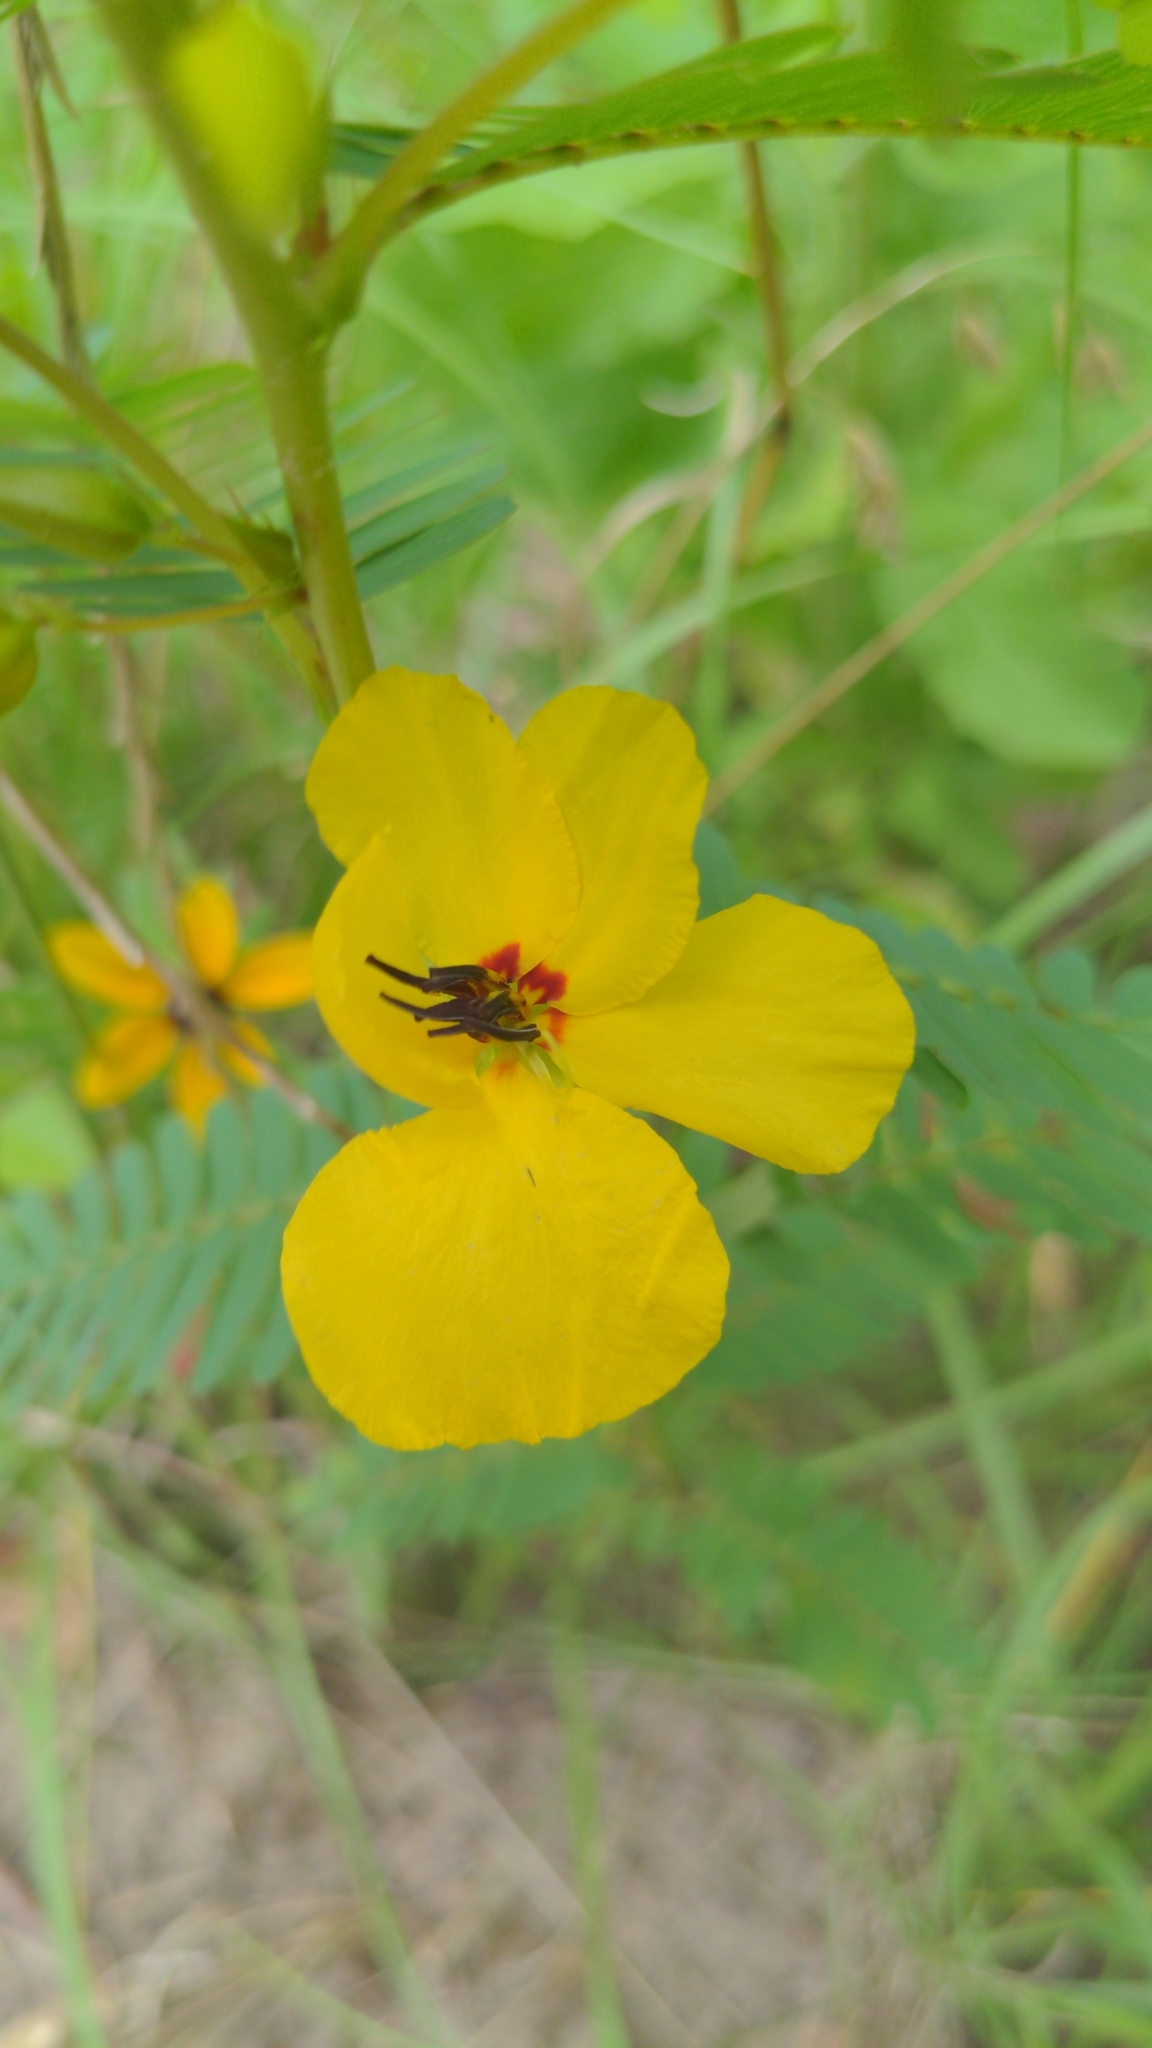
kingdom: Plantae
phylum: Tracheophyta
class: Magnoliopsida
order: Fabales
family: Fabaceae
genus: Chamaecrista
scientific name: Chamaecrista fasciculata
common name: Golden cassia
